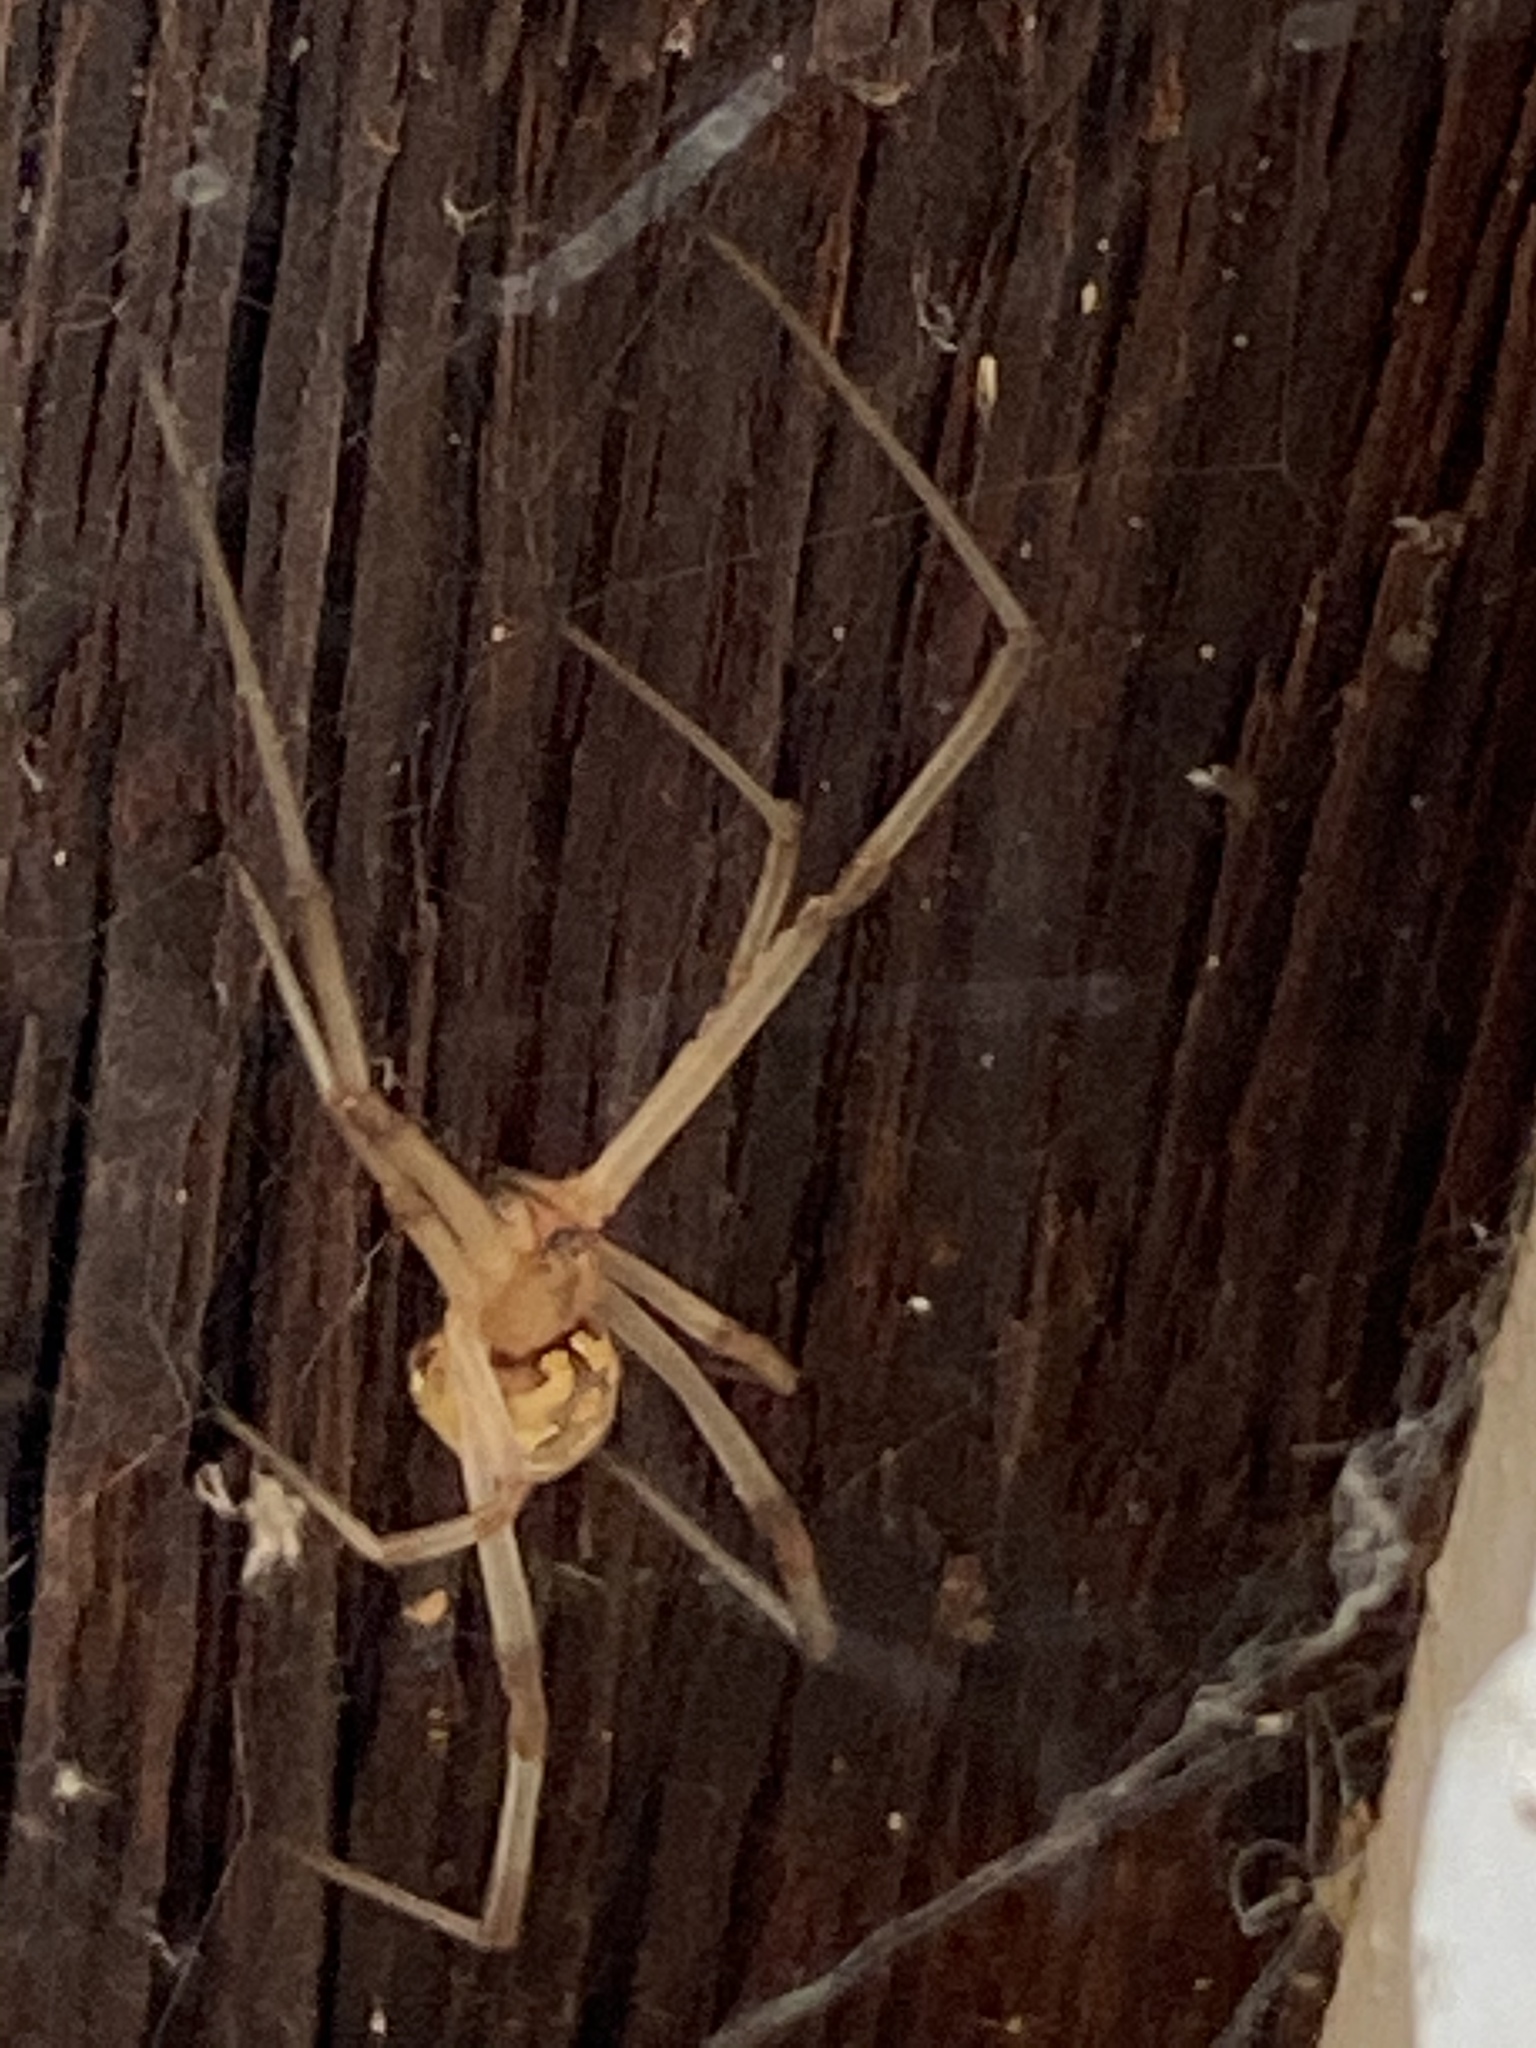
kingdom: Animalia
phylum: Arthropoda
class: Arachnida
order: Araneae
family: Theridiidae
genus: Latrodectus
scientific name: Latrodectus geometricus
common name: Brown widow spider
